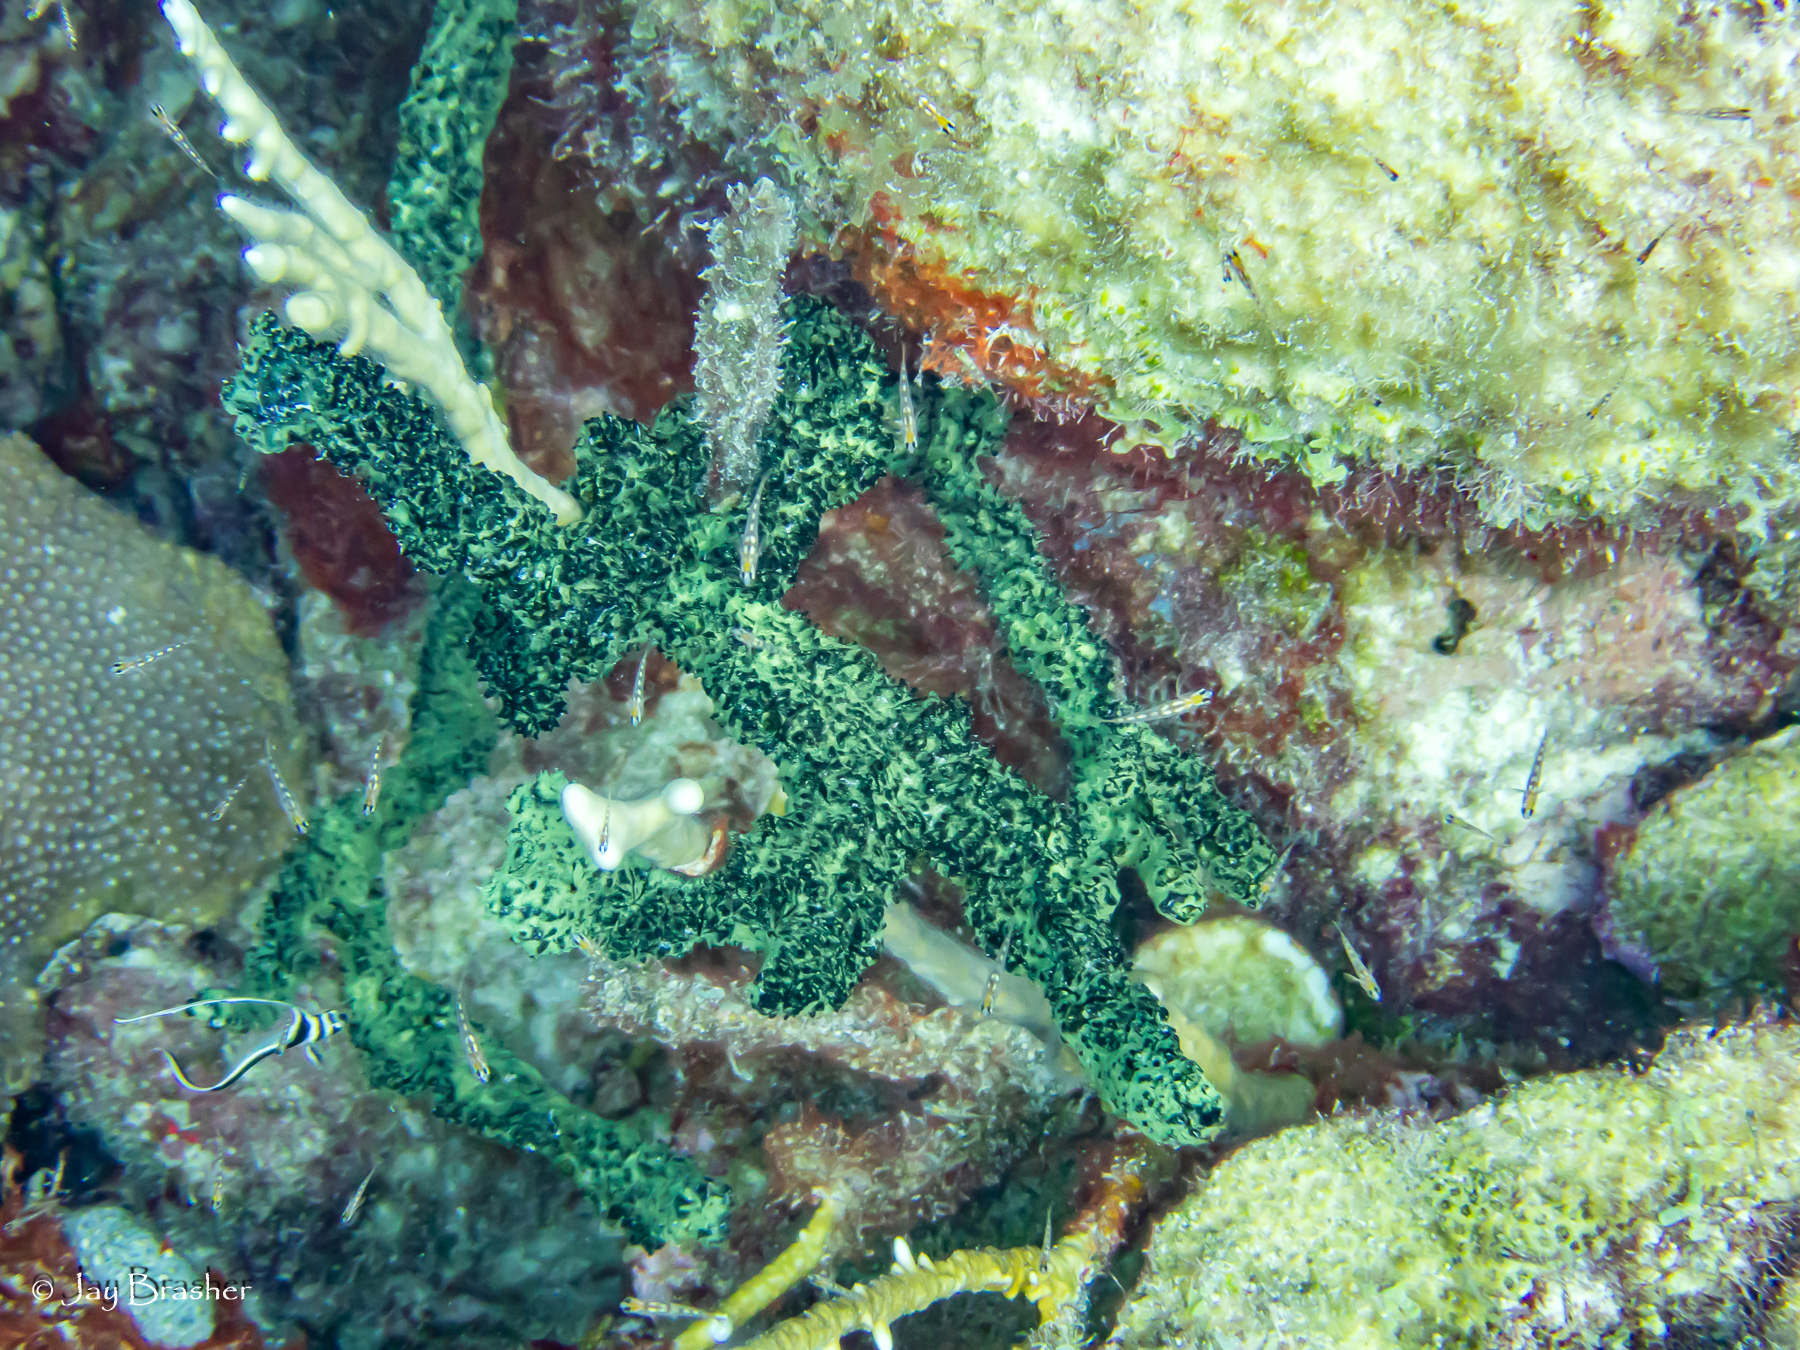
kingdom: Animalia
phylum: Chordata
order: Perciformes
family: Sciaenidae
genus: Equetus
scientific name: Equetus punctatus
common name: Spotted drum
